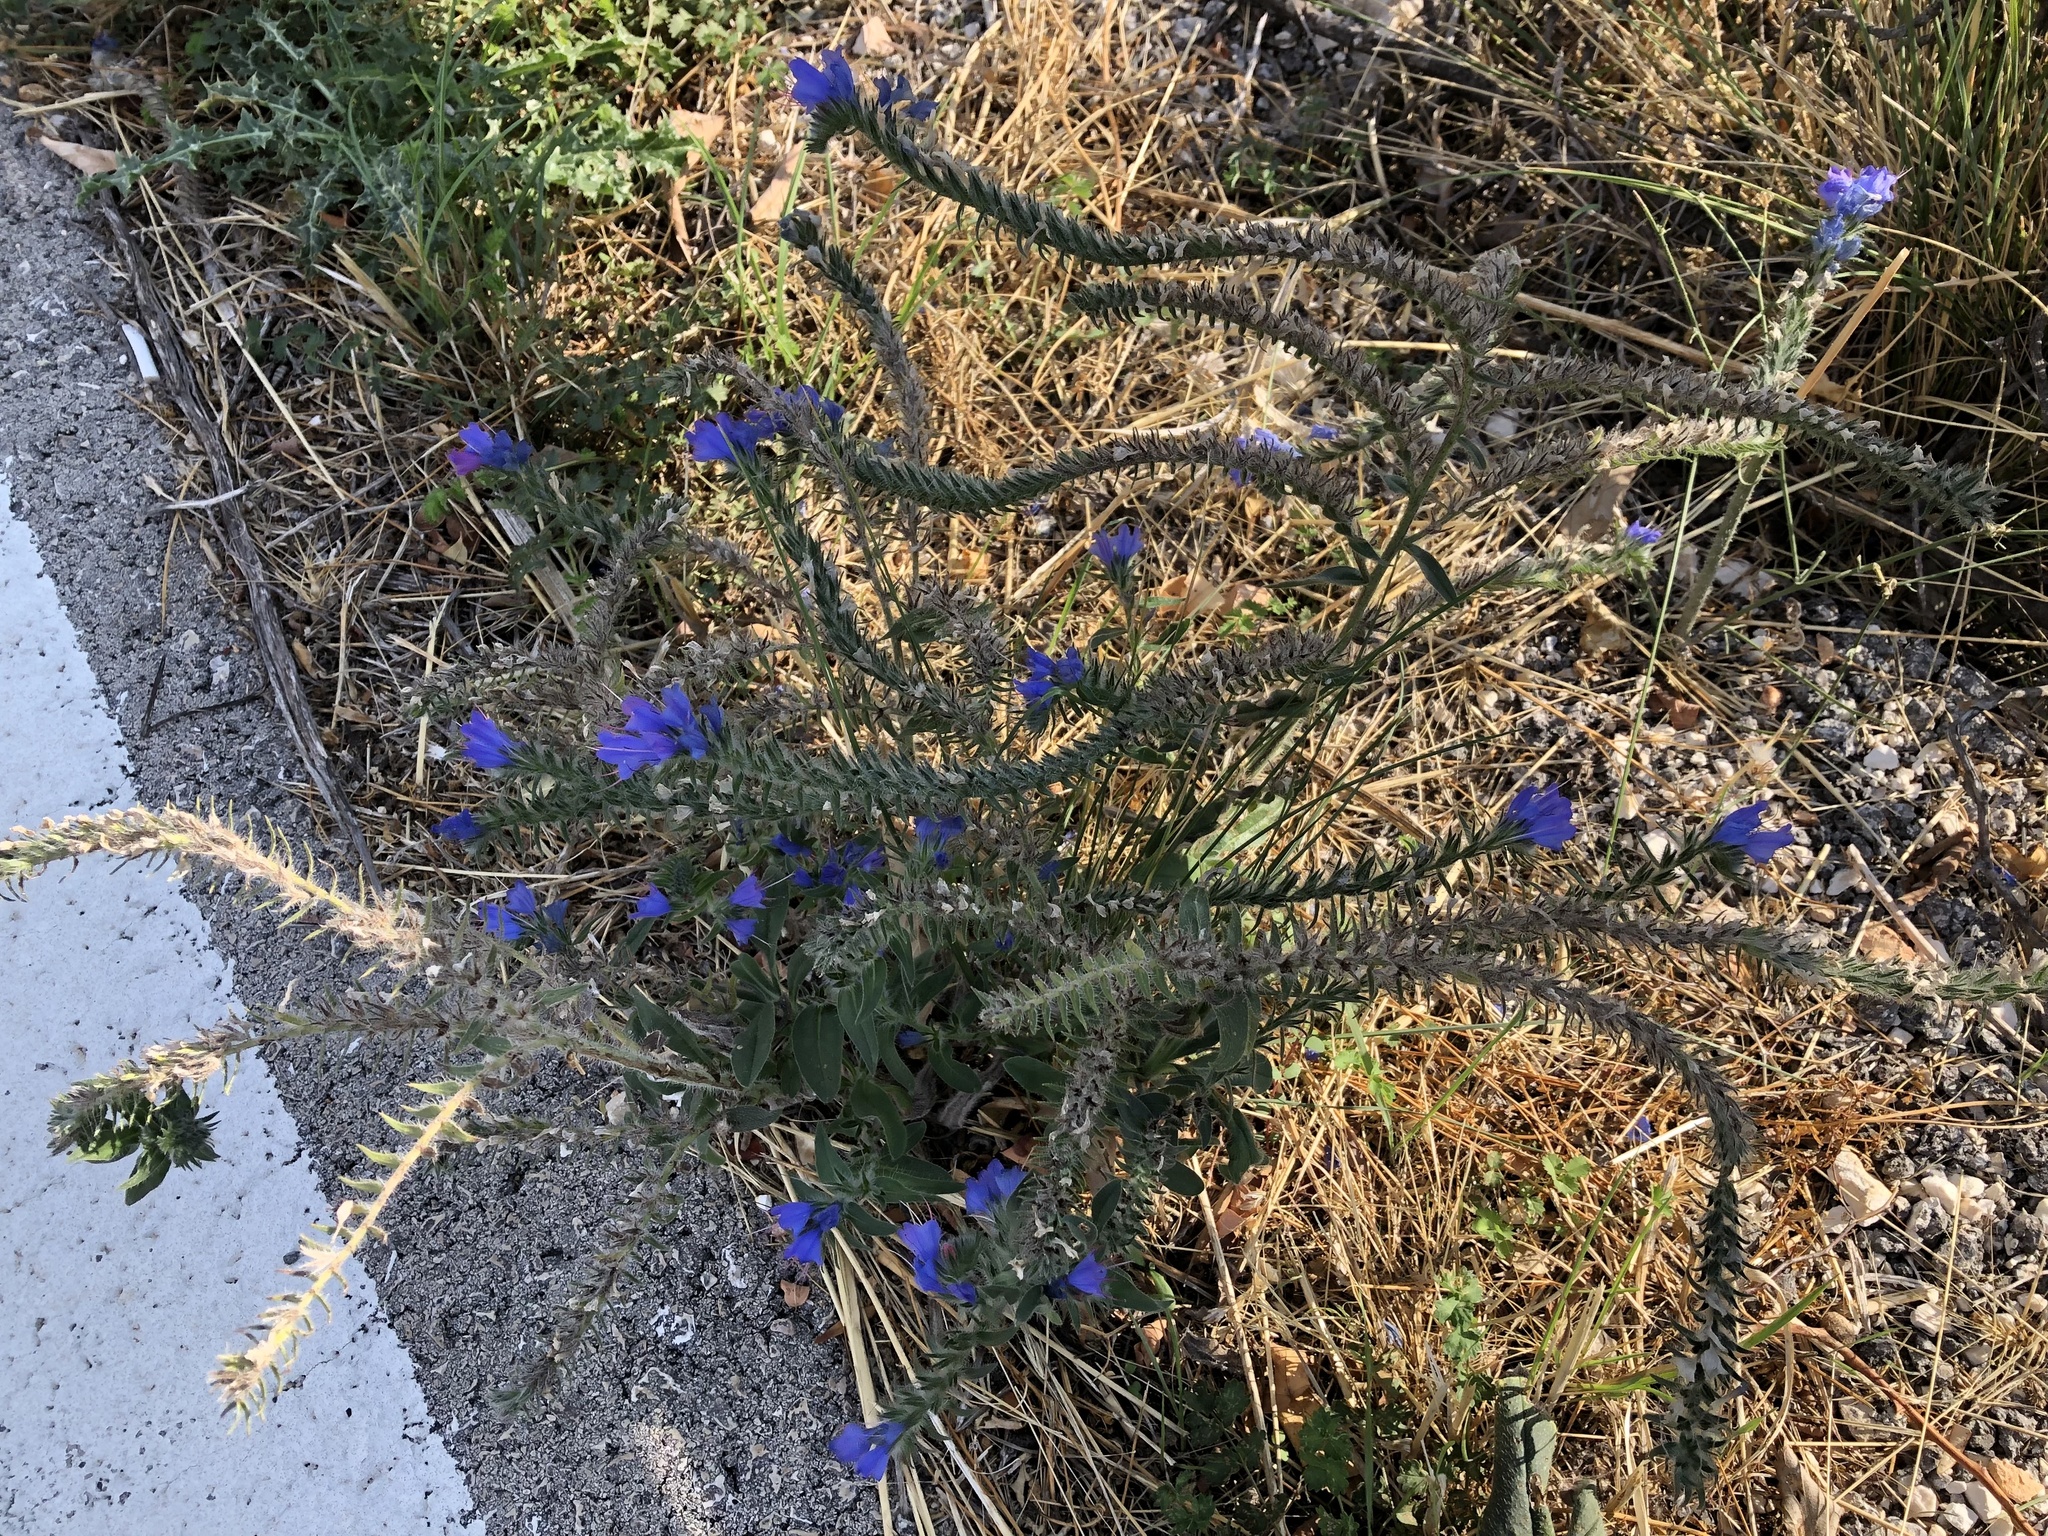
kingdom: Plantae
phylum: Tracheophyta
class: Magnoliopsida
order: Boraginales
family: Boraginaceae
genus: Echium
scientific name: Echium vulgare
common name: Common viper's bugloss
